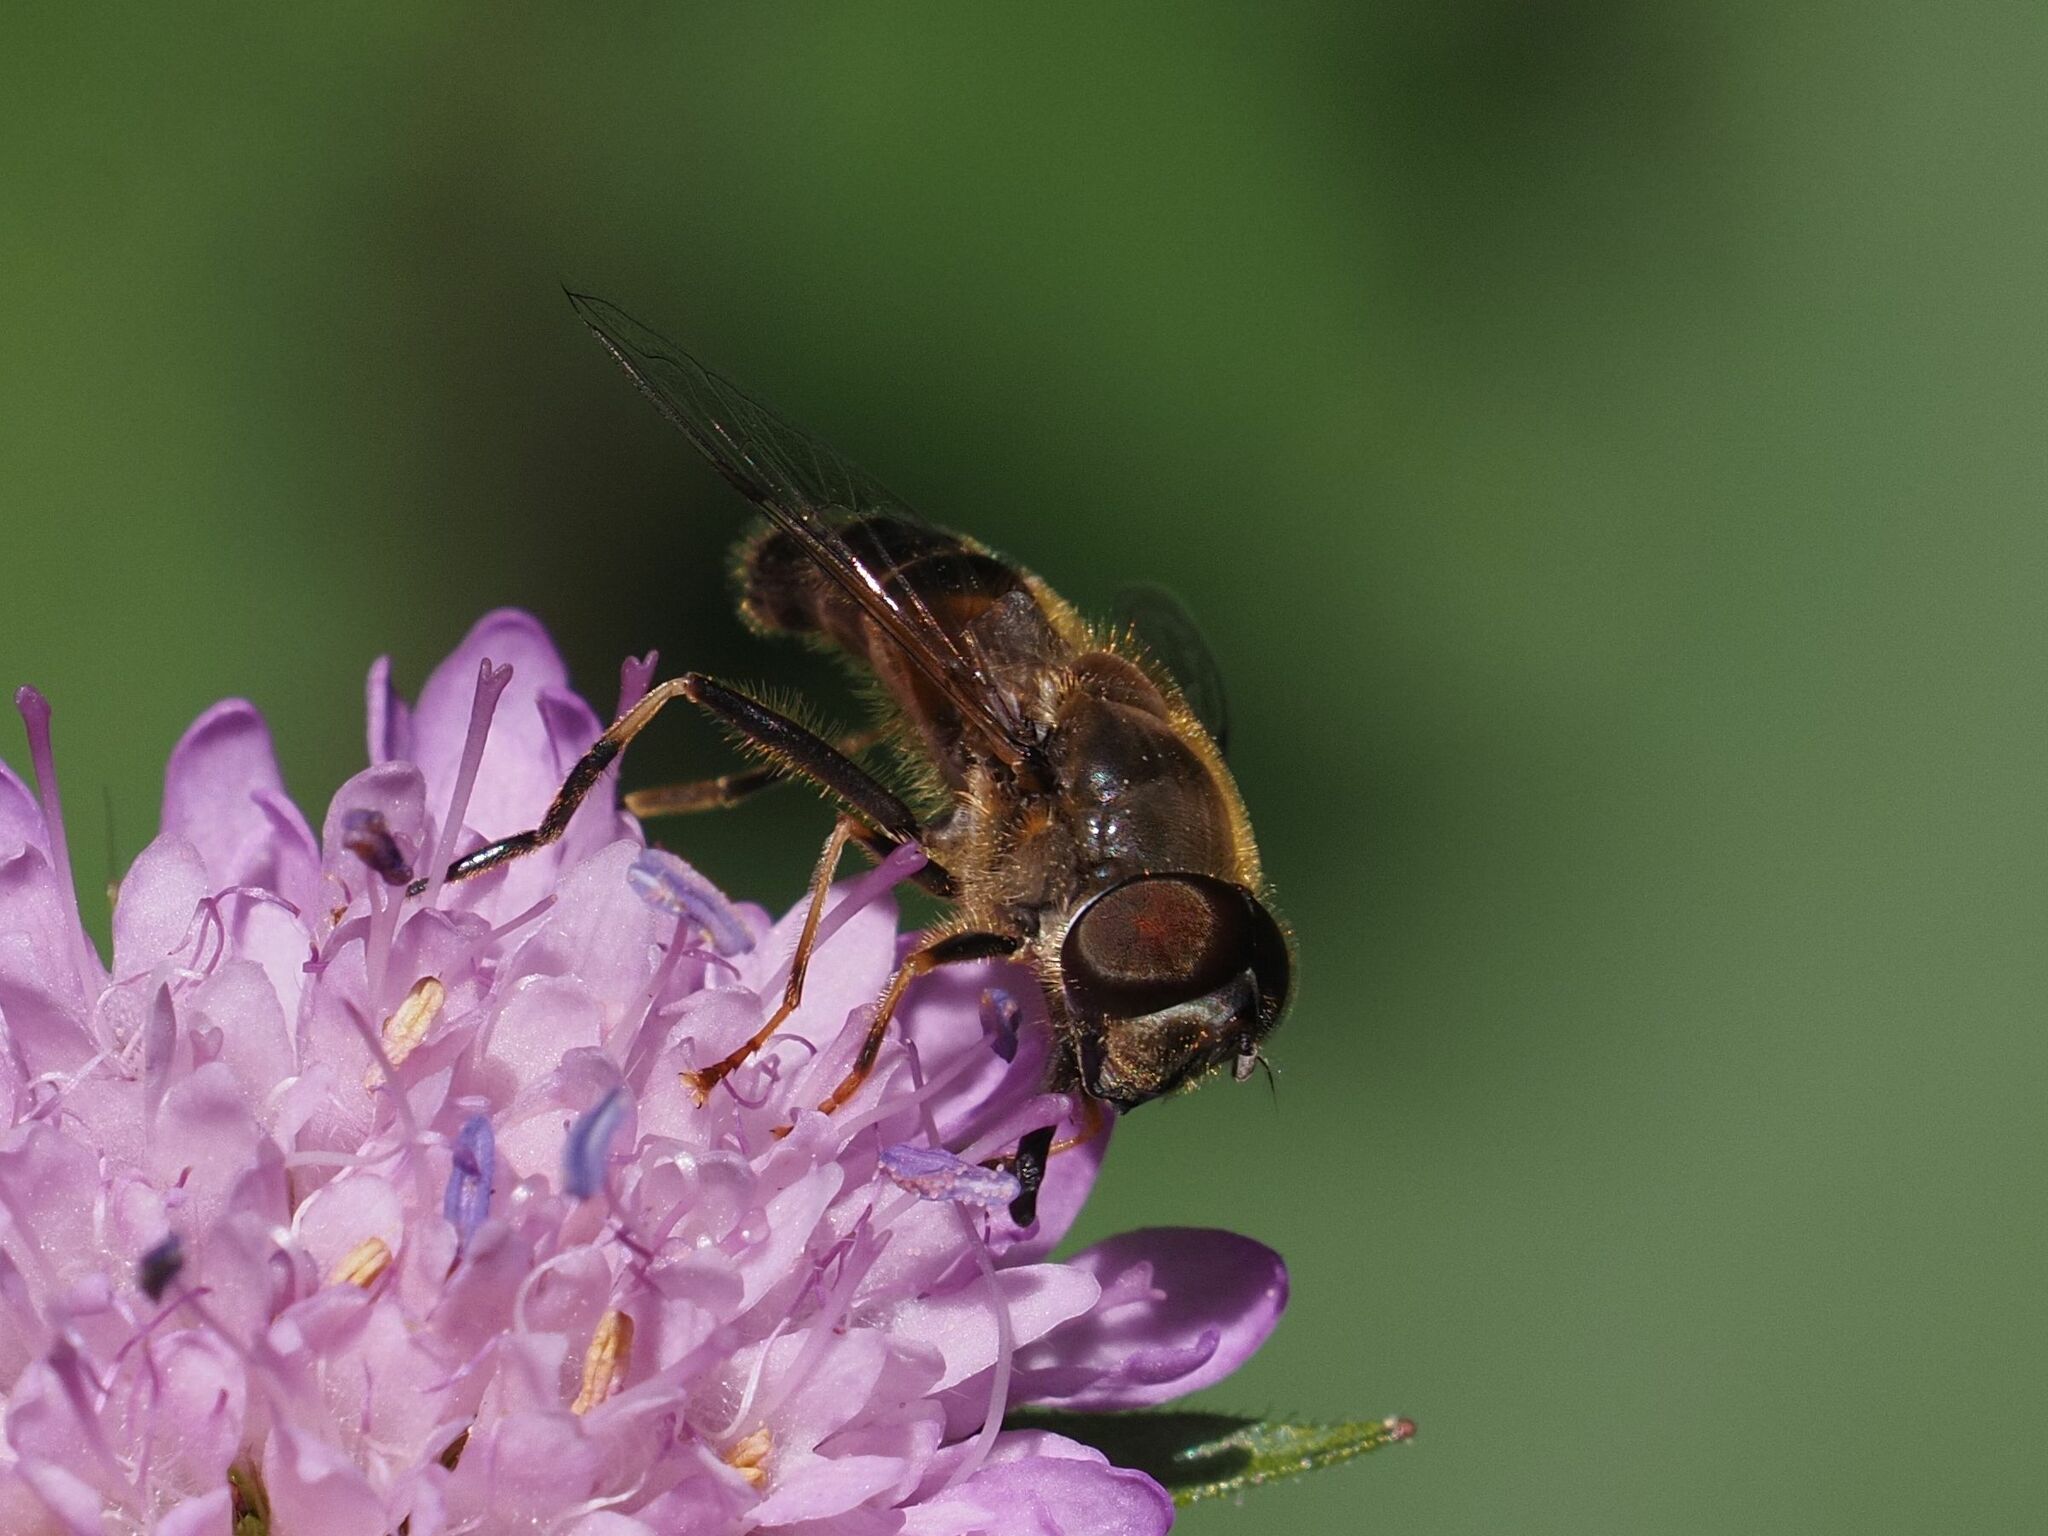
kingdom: Animalia
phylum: Arthropoda
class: Insecta
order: Diptera
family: Syrphidae
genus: Eristalis
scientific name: Eristalis pertinax
